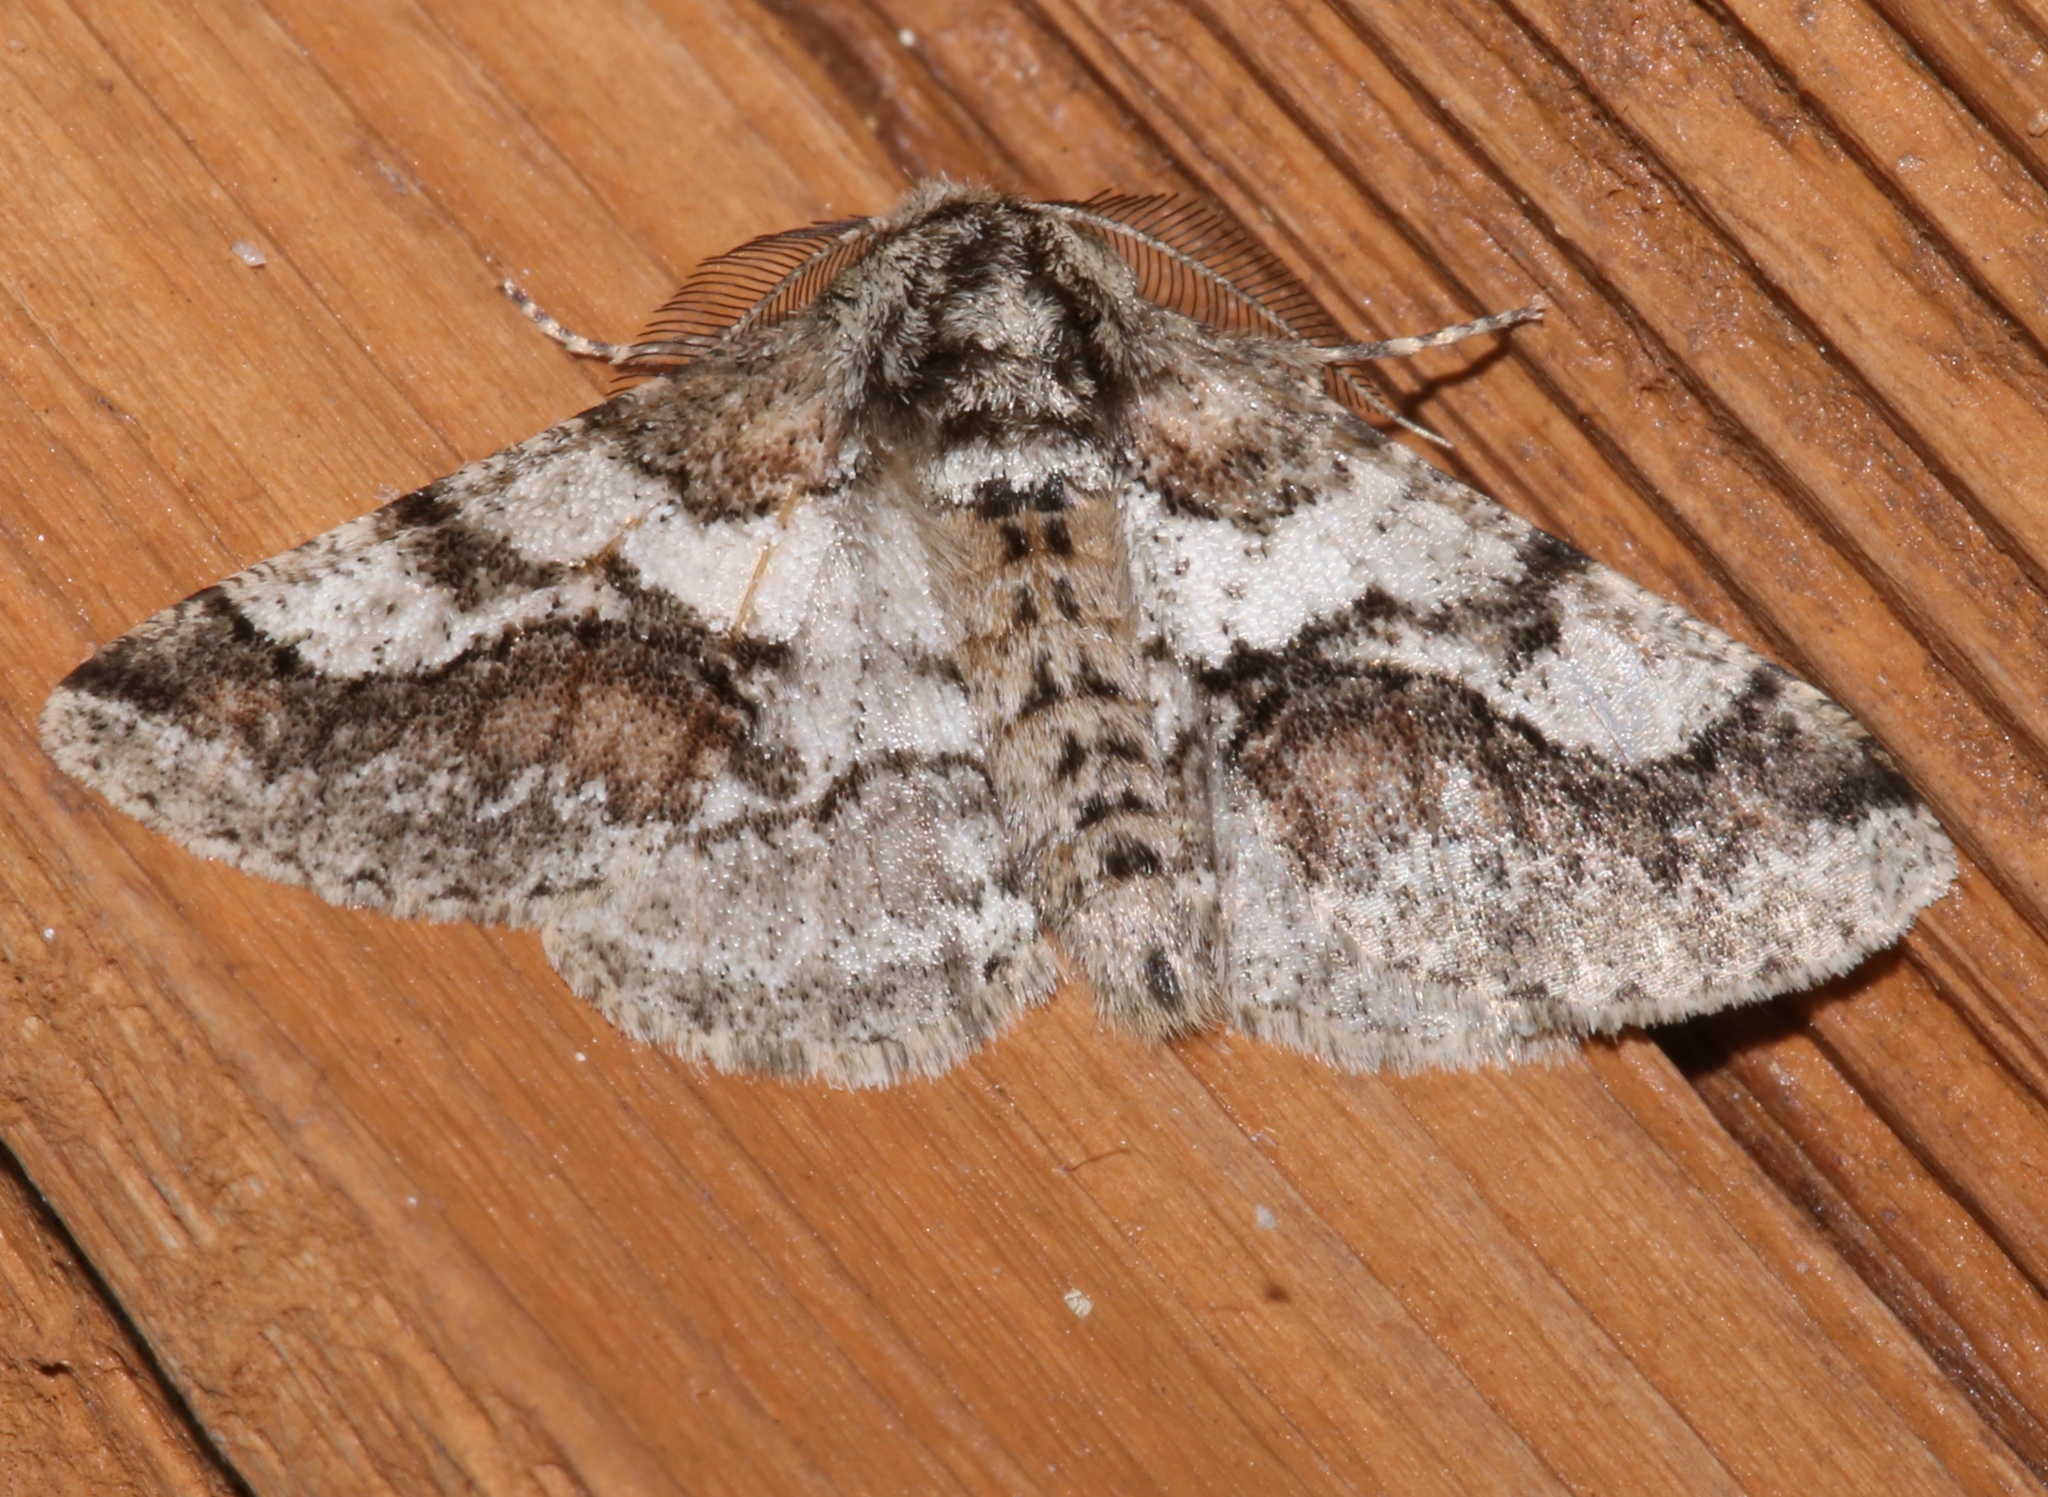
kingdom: Animalia
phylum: Arthropoda
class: Insecta
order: Lepidoptera
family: Geometridae
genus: Lycia
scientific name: Lycia ypsilon
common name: Wooly gray
